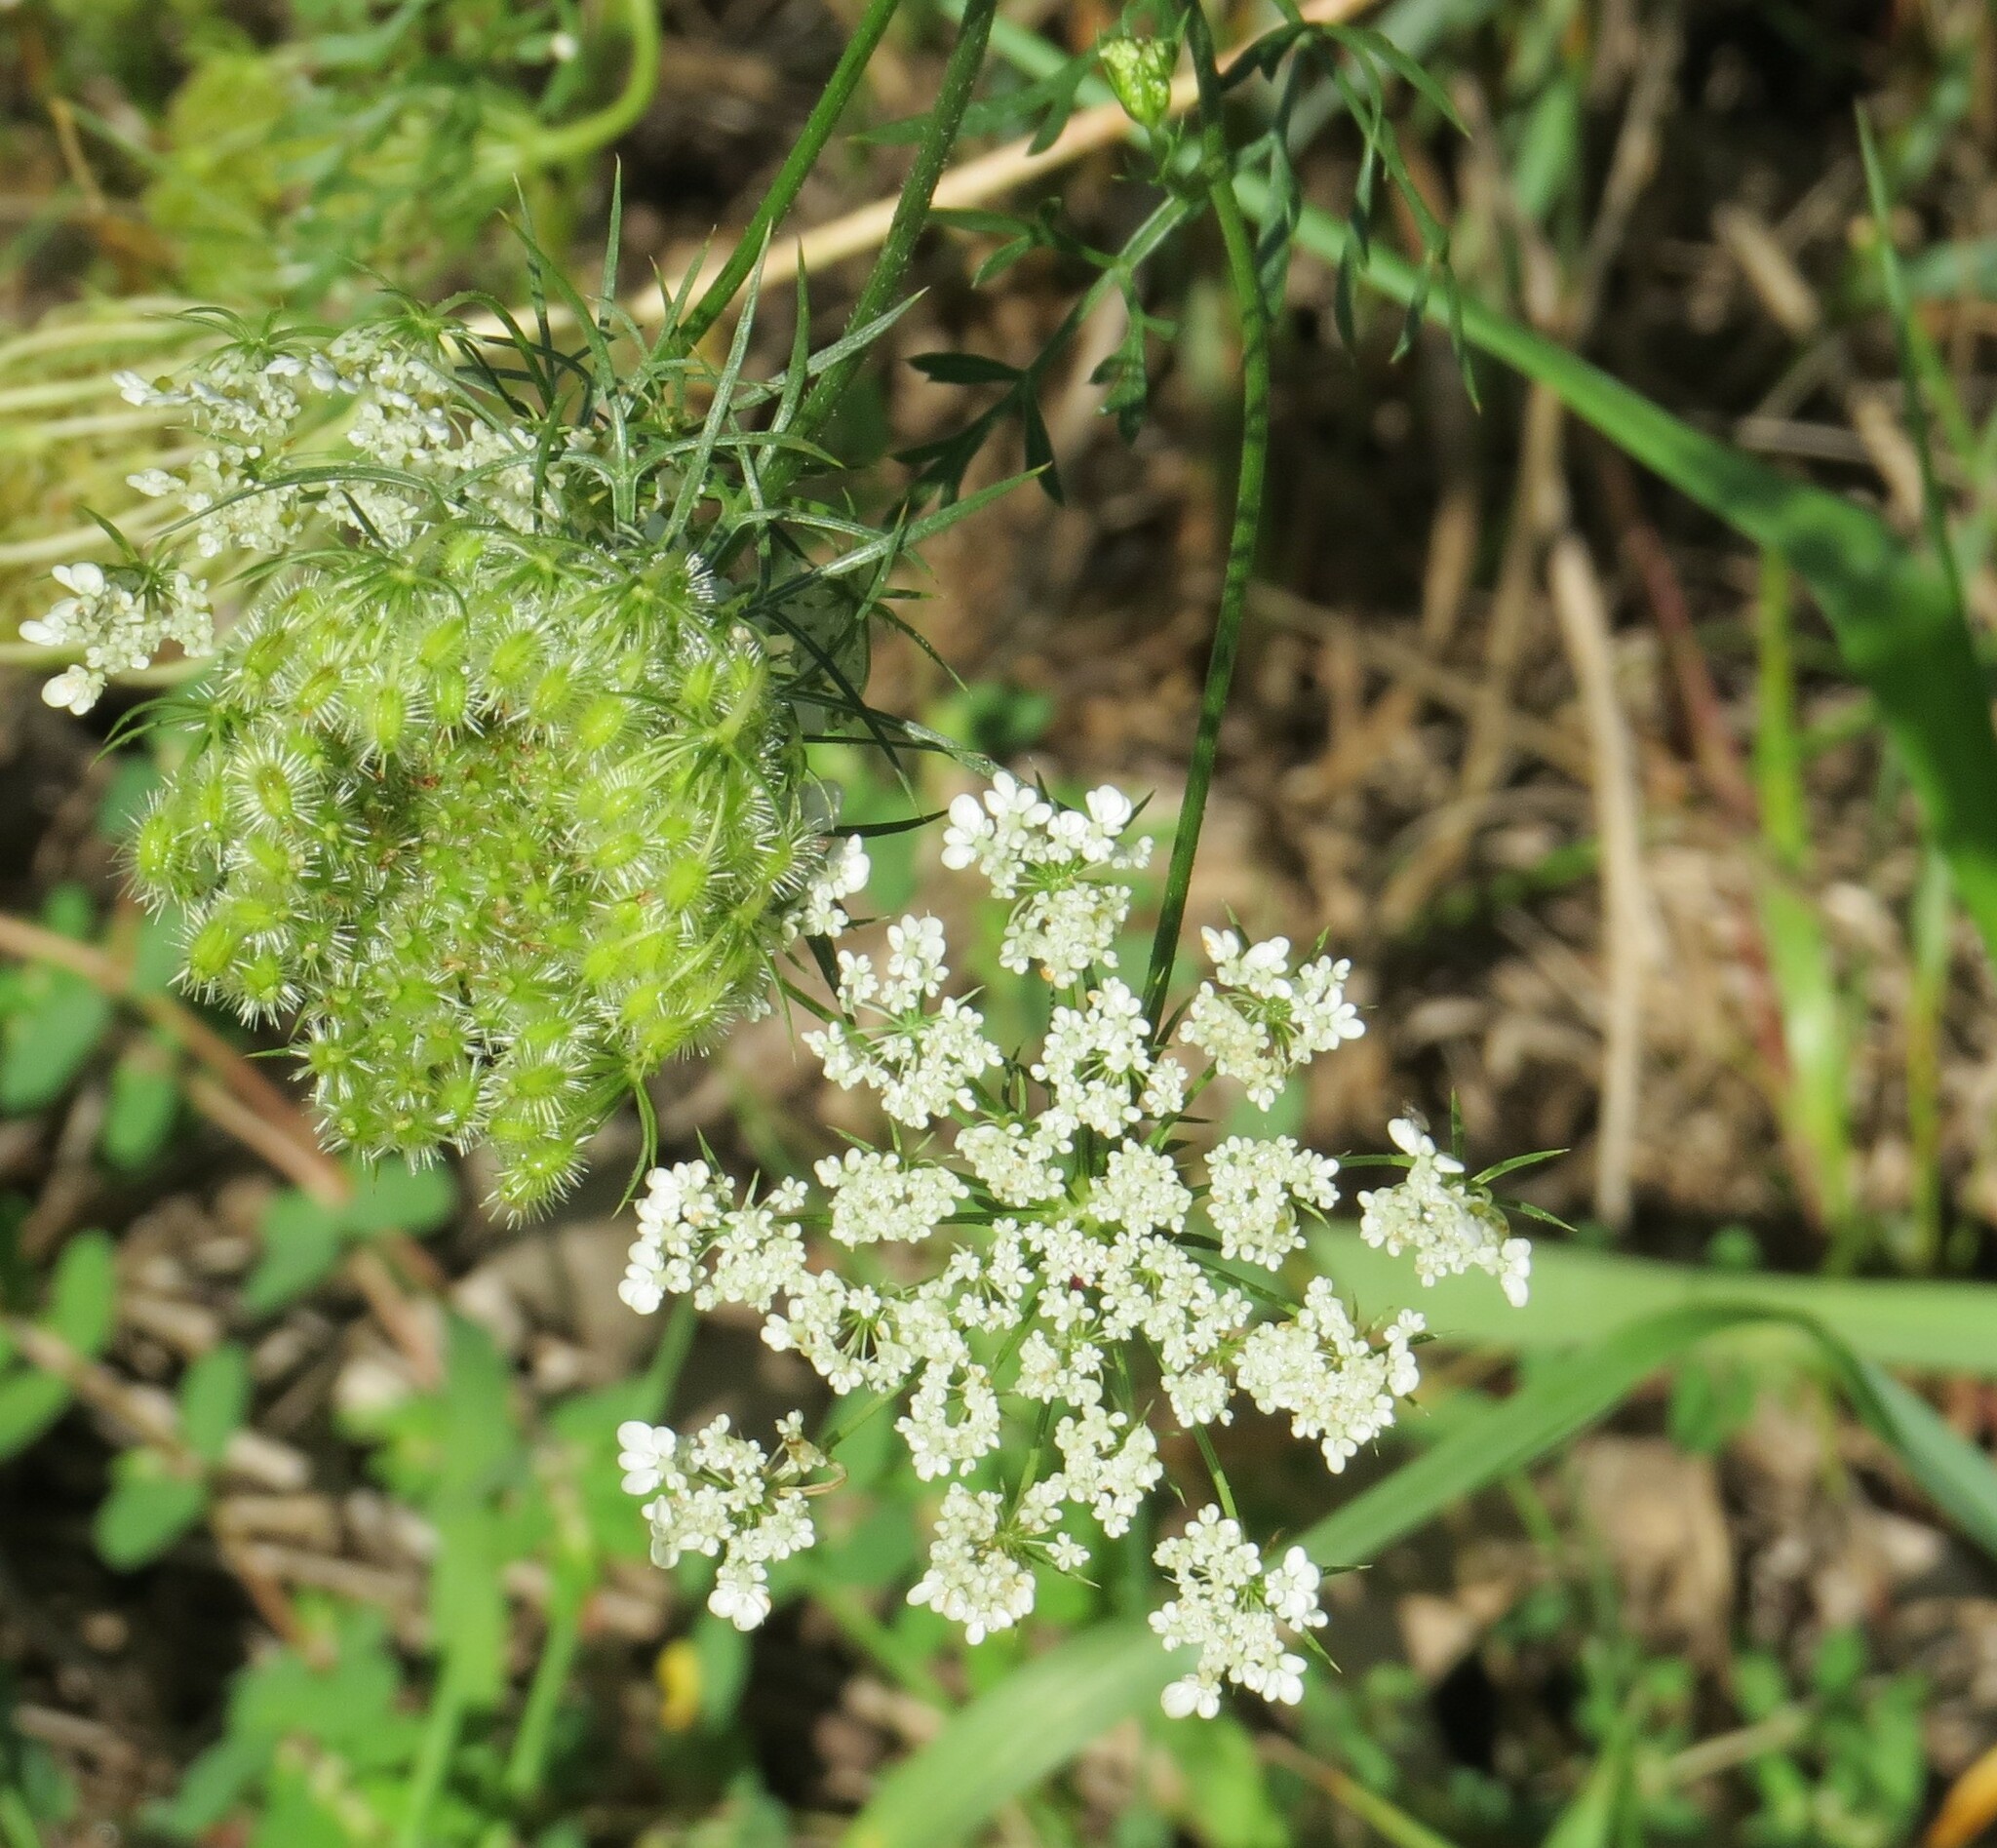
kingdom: Plantae
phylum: Tracheophyta
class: Magnoliopsida
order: Apiales
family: Apiaceae
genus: Daucus
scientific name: Daucus carota
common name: Wild carrot
